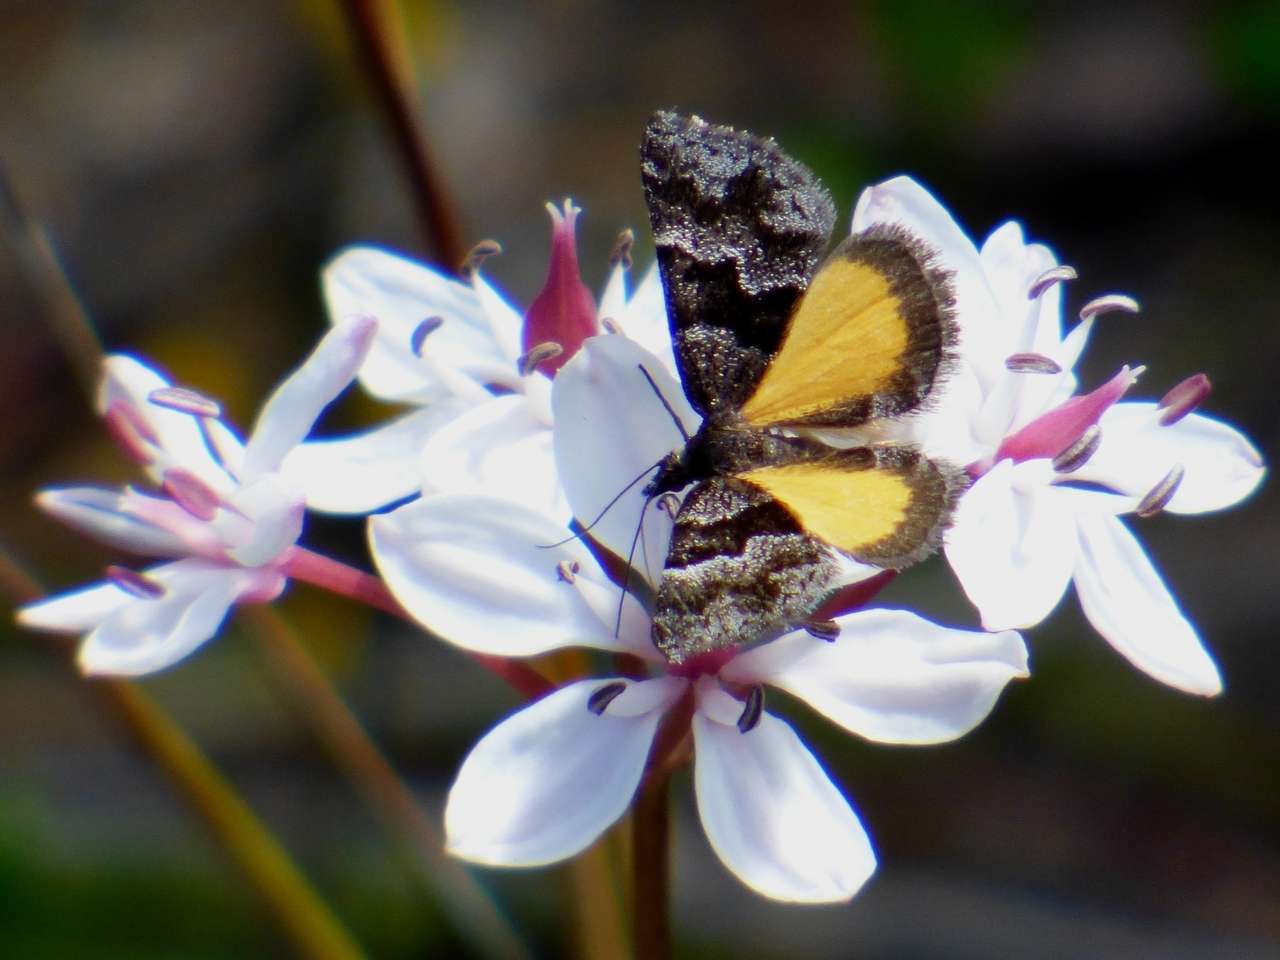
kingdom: Plantae
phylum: Tracheophyta
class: Liliopsida
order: Liliales
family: Colchicaceae
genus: Burchardia
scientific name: Burchardia umbellata
